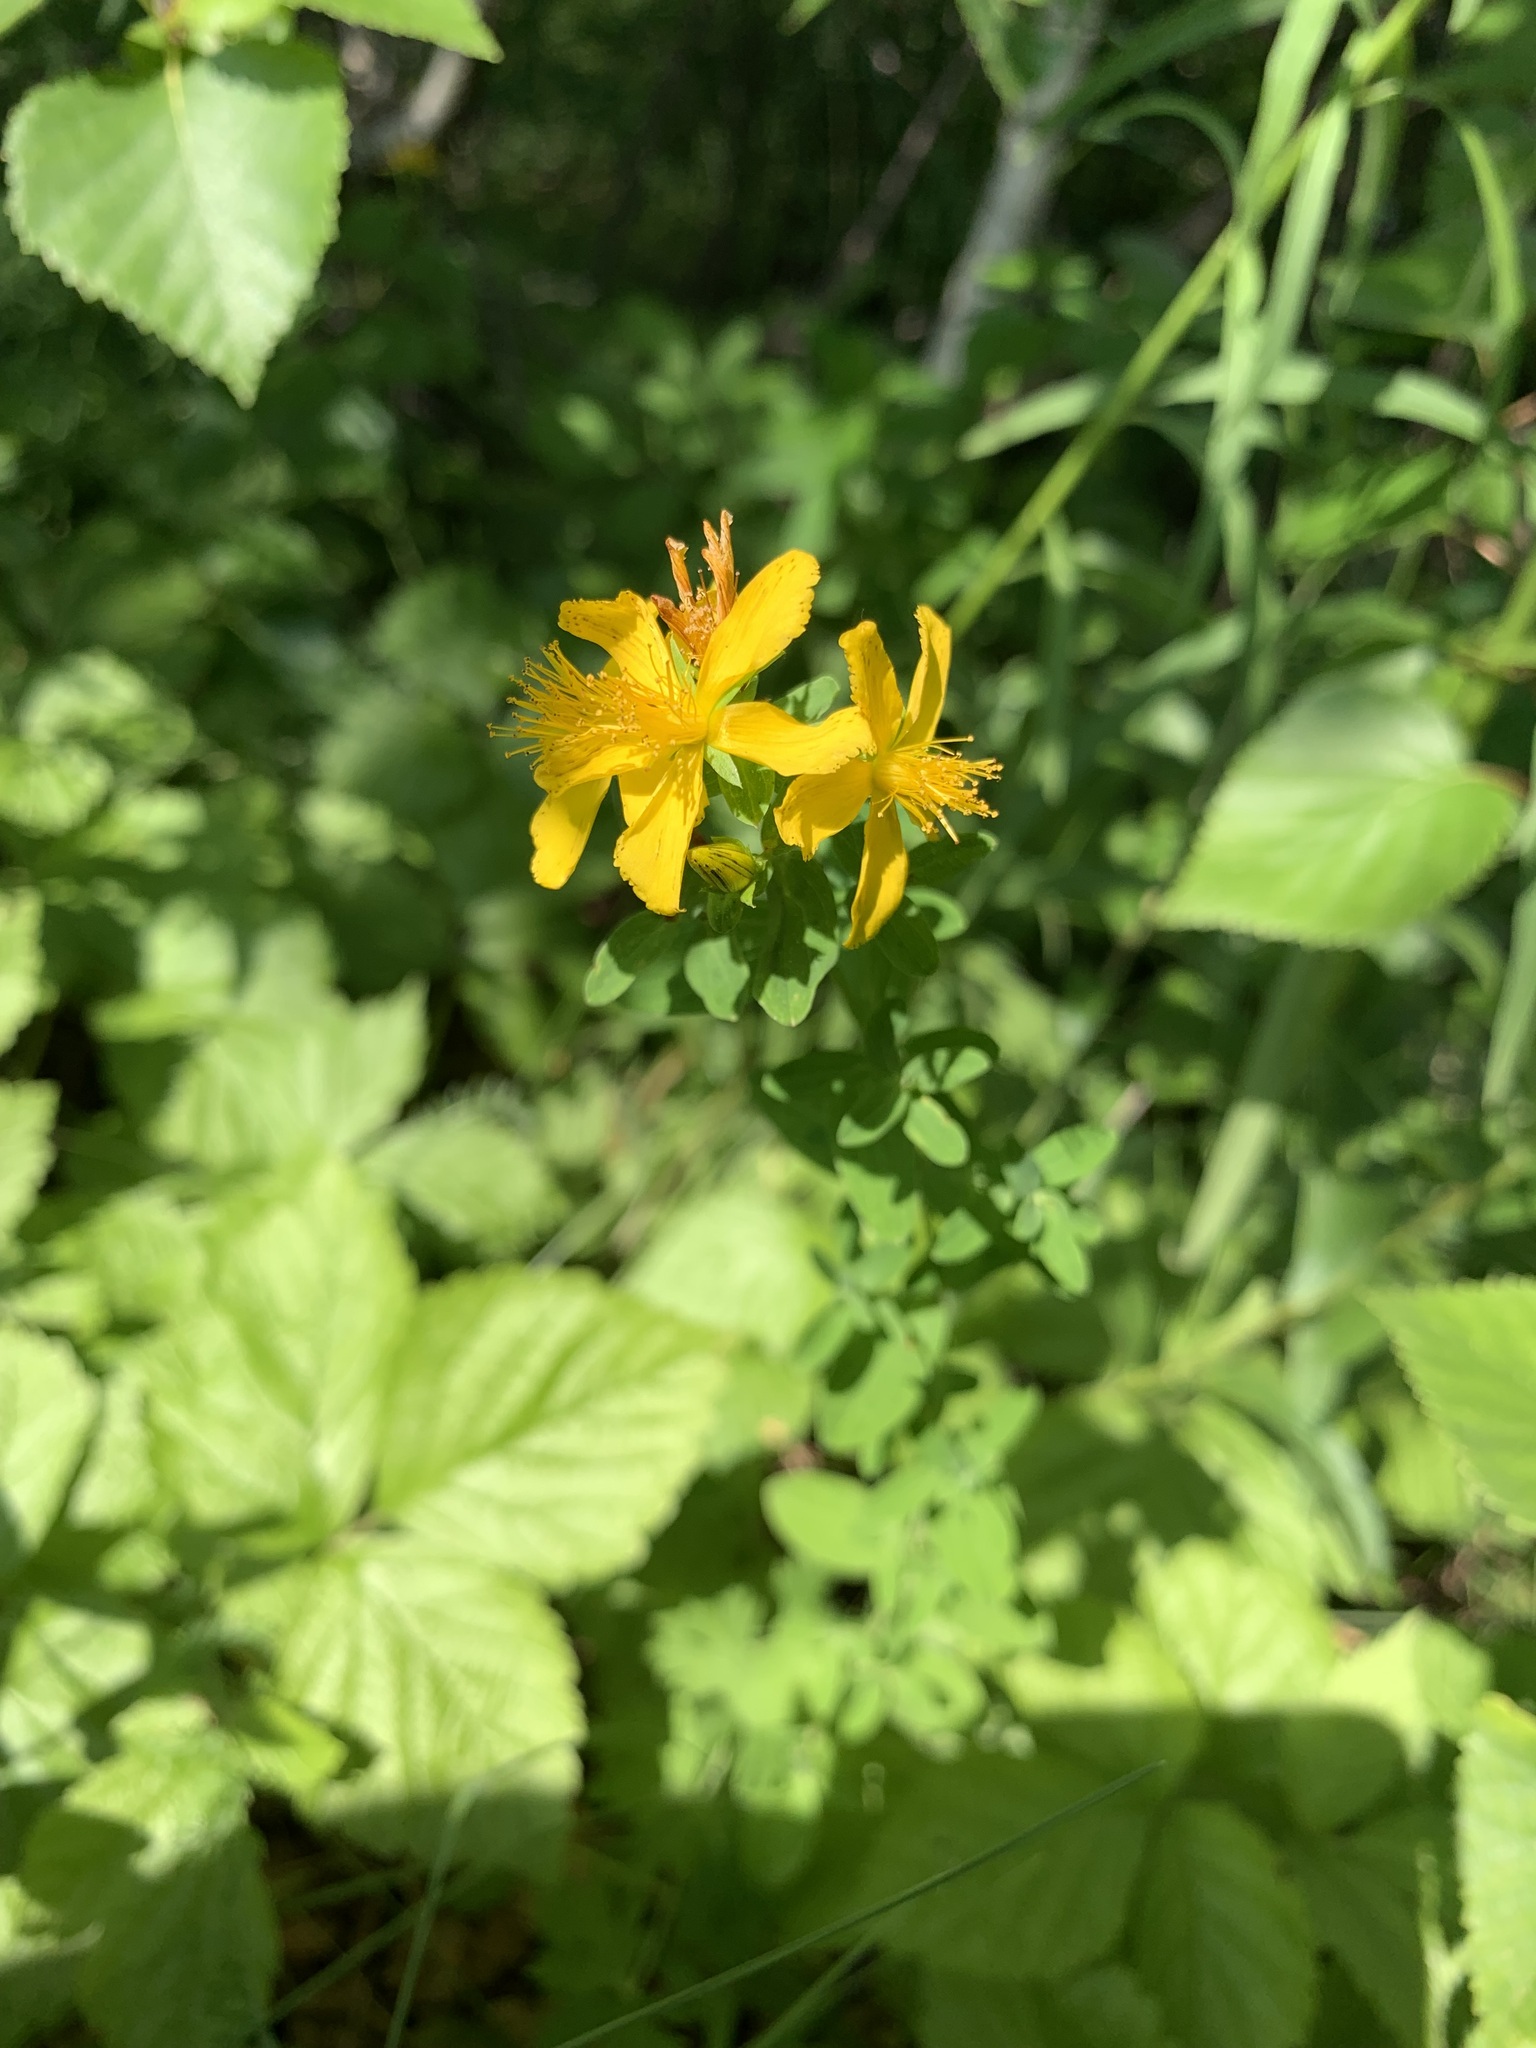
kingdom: Plantae
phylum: Tracheophyta
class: Magnoliopsida
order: Malpighiales
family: Hypericaceae
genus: Hypericum
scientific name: Hypericum perforatum
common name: Common st. johnswort
